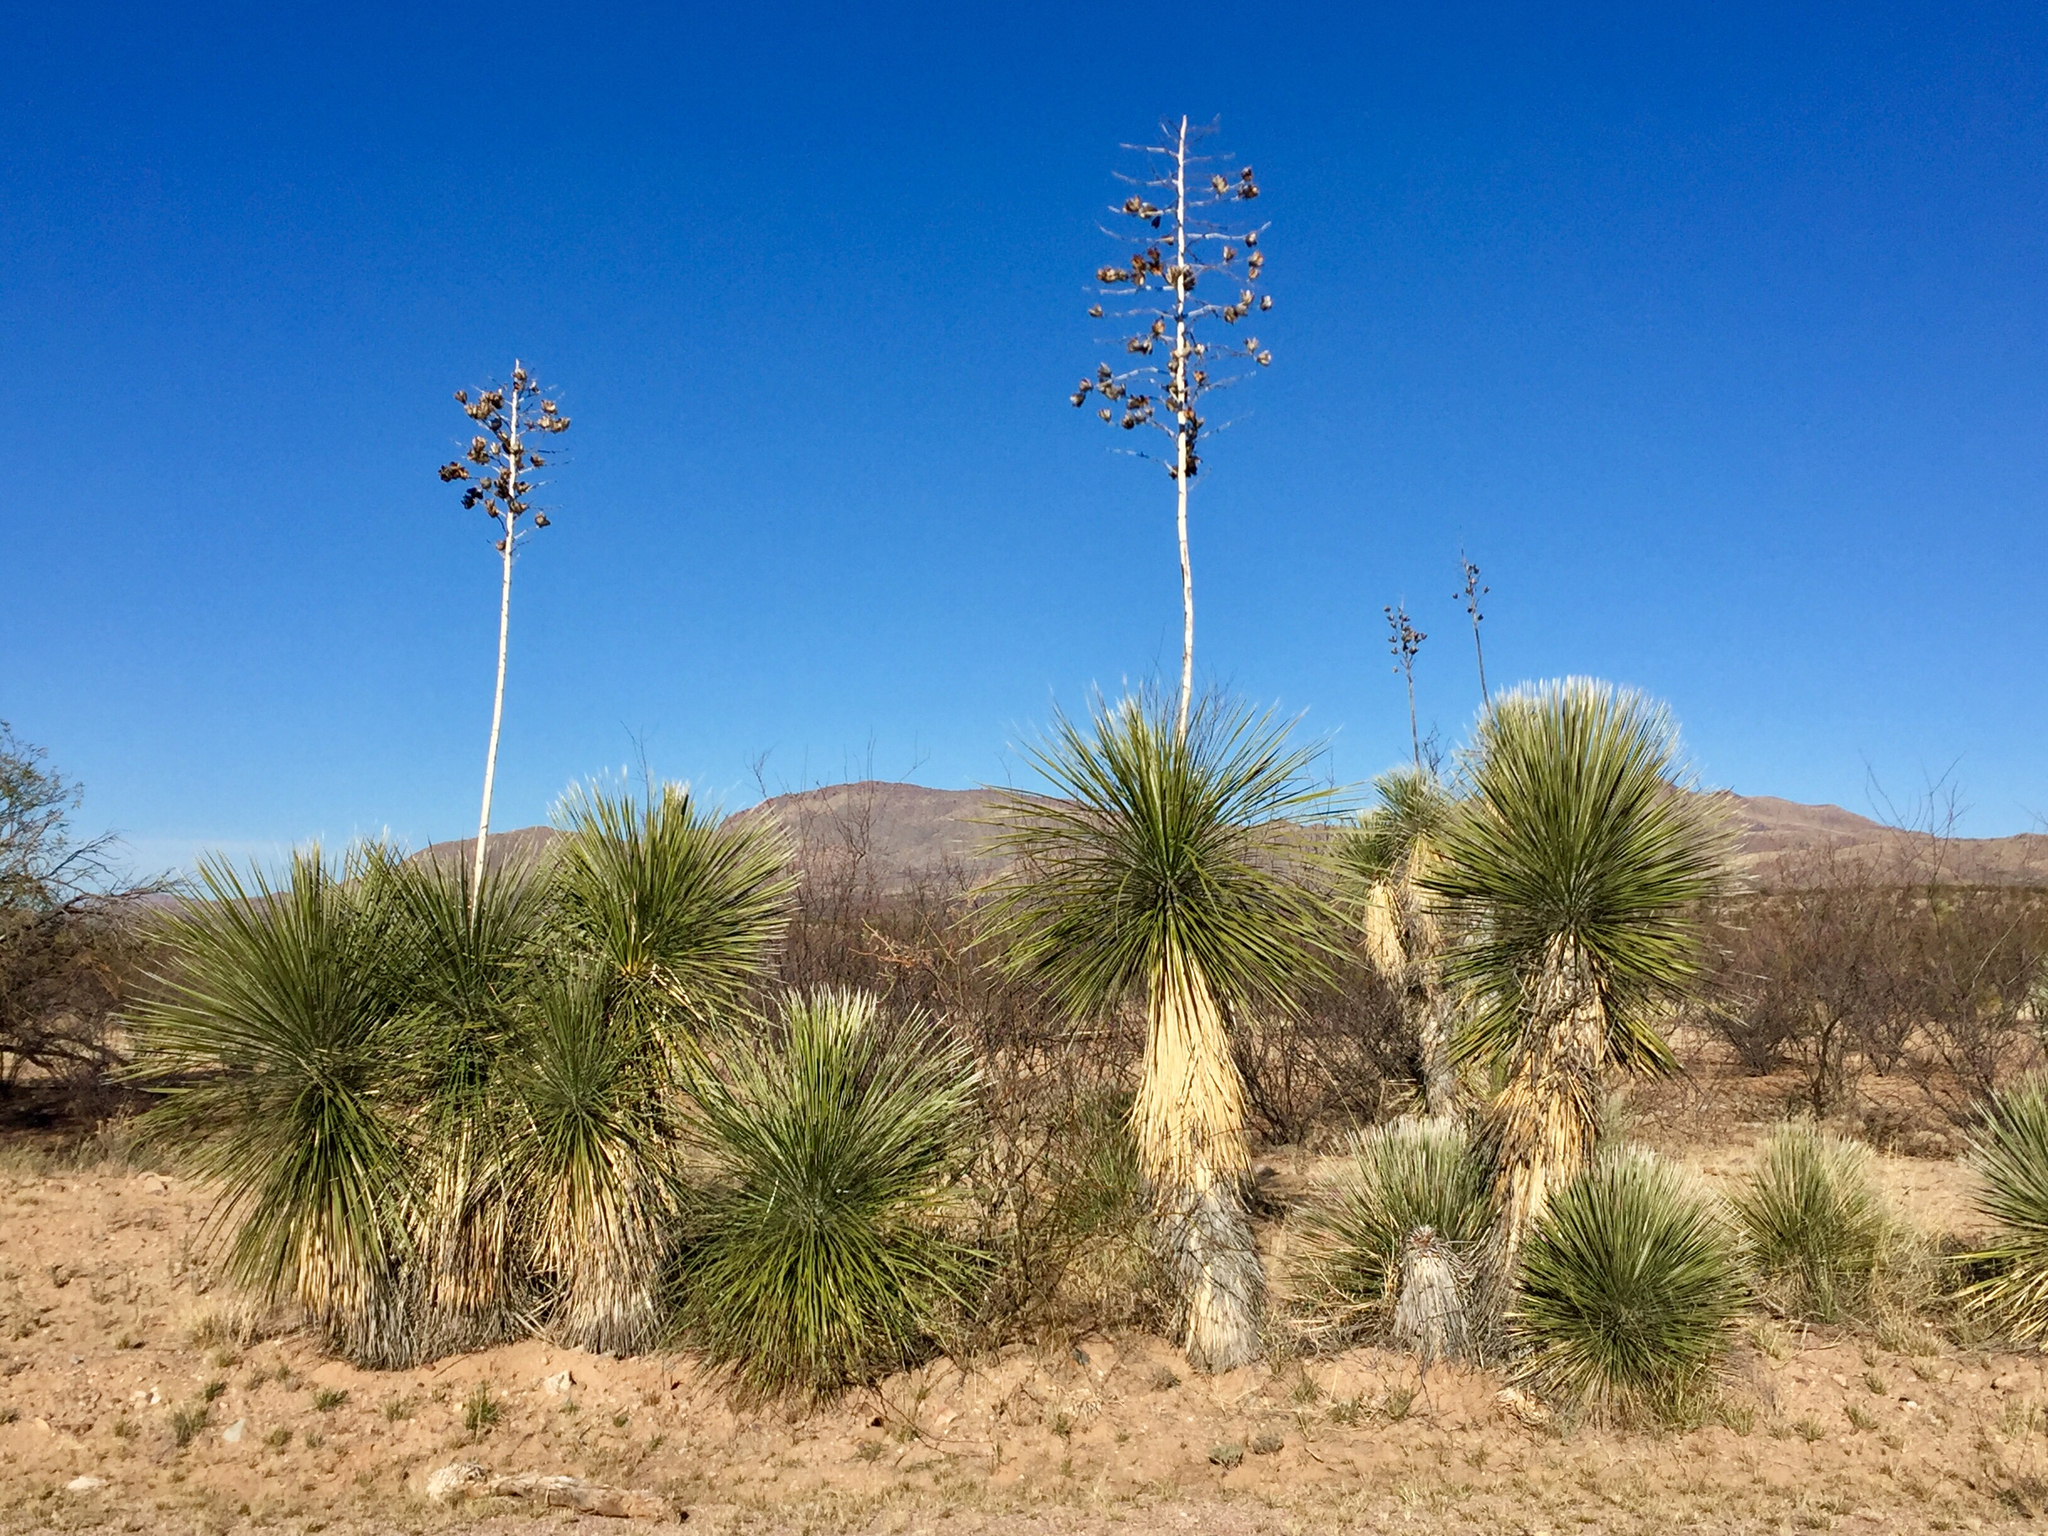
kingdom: Plantae
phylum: Tracheophyta
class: Liliopsida
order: Asparagales
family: Asparagaceae
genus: Yucca
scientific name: Yucca elata
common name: Palmella
